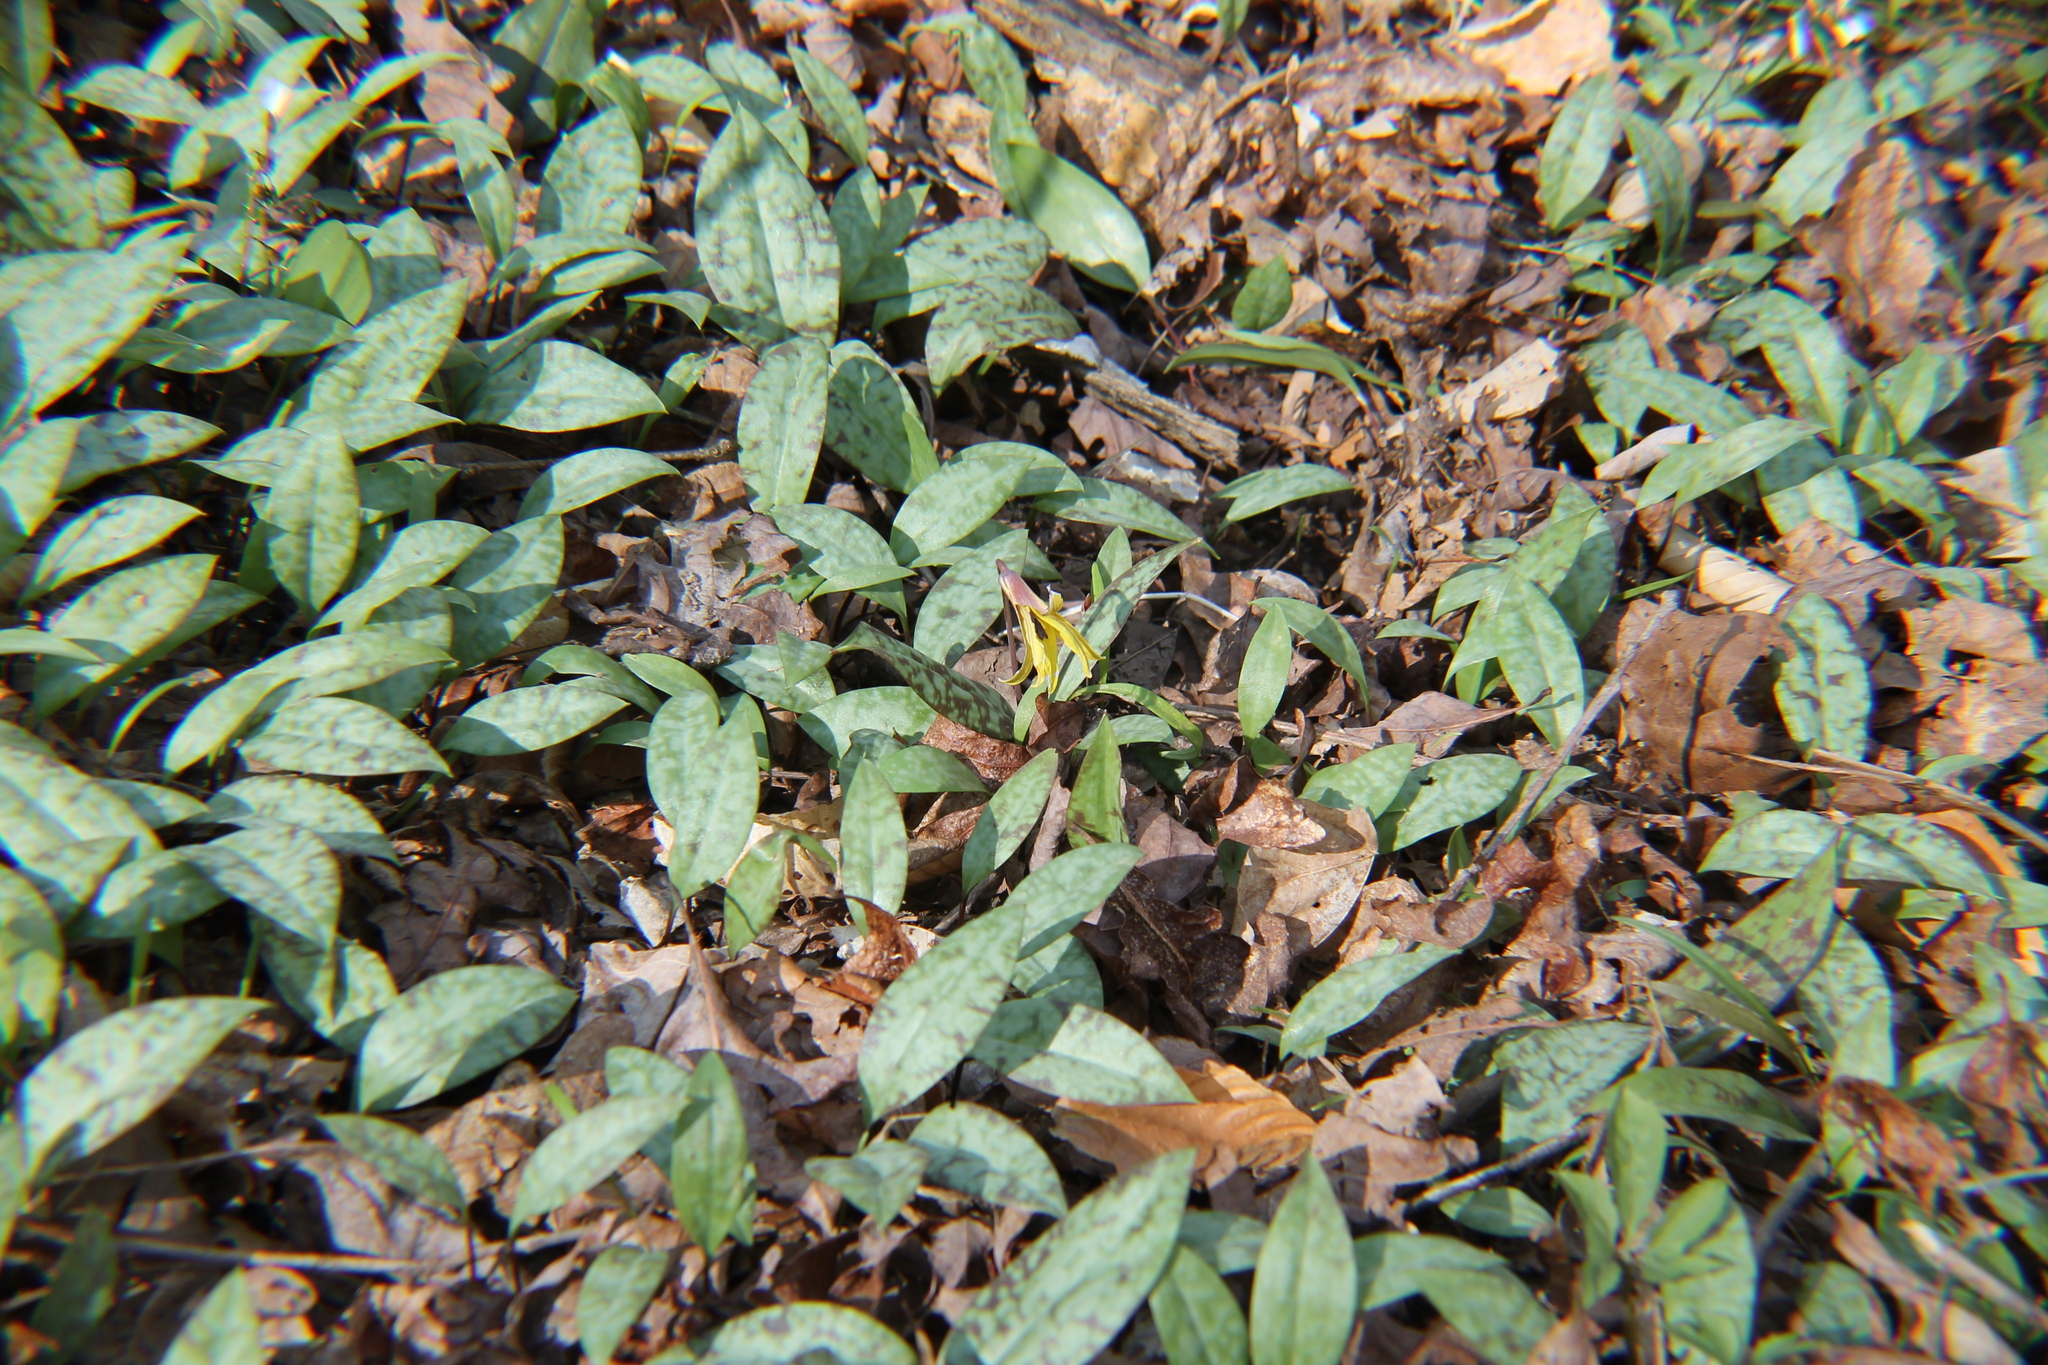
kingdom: Plantae
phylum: Tracheophyta
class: Liliopsida
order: Liliales
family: Liliaceae
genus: Erythronium
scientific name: Erythronium americanum
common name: Yellow adder's-tongue
